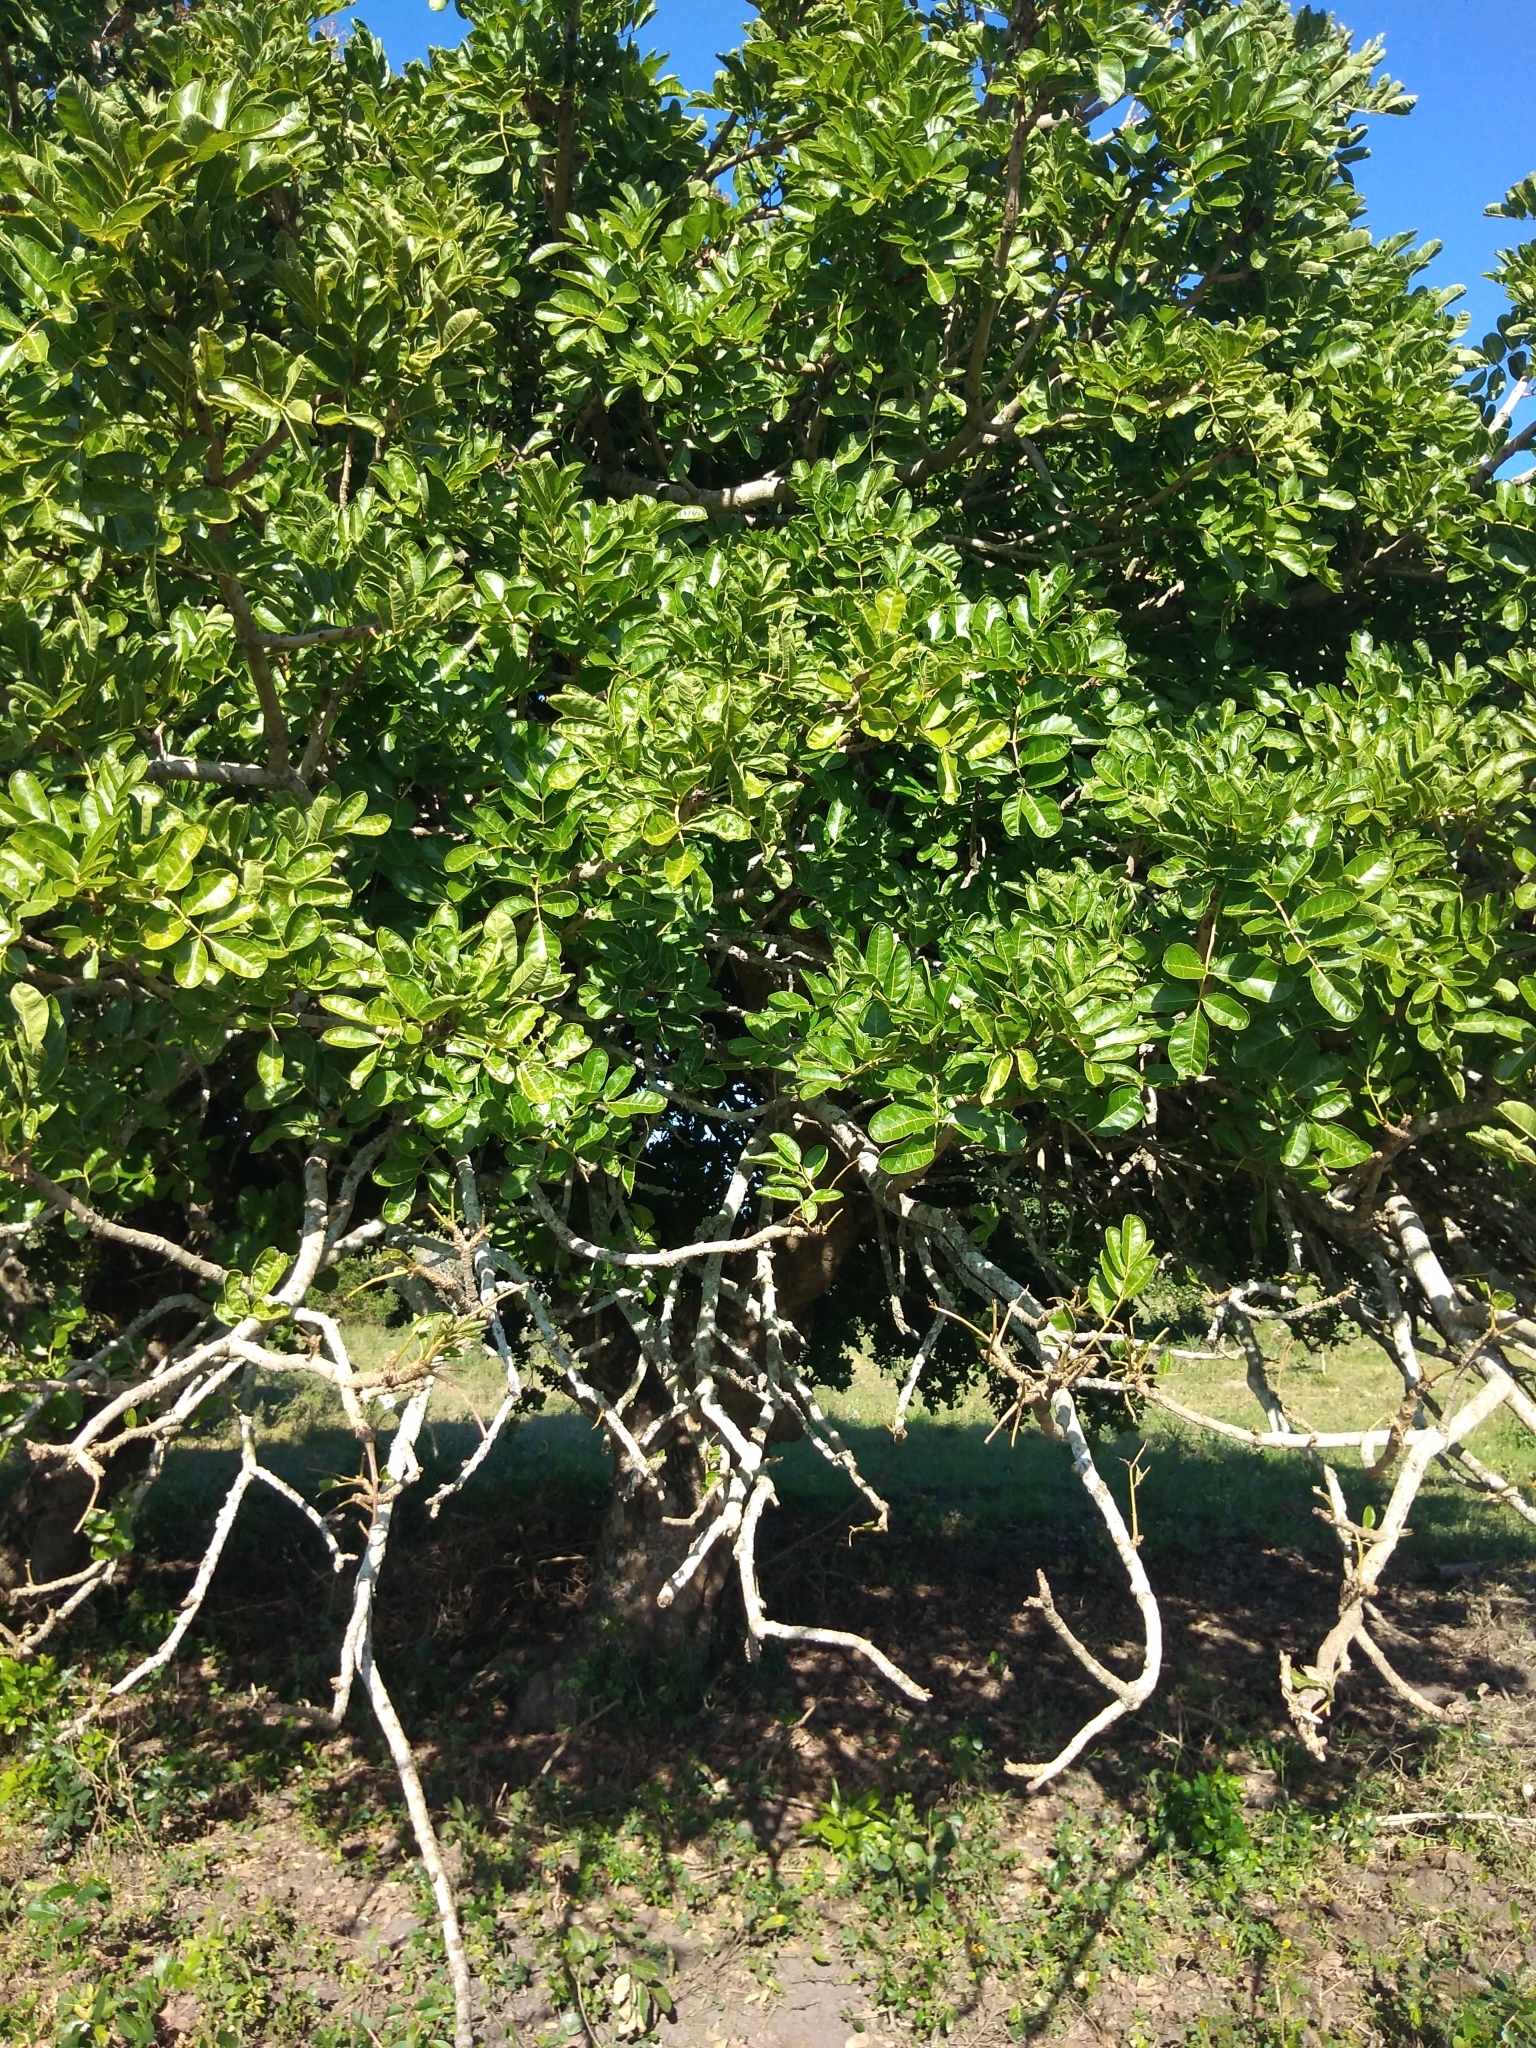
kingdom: Plantae
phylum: Tracheophyta
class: Magnoliopsida
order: Lamiales
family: Bignoniaceae
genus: Kigelia
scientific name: Kigelia africana
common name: Sausage tree
